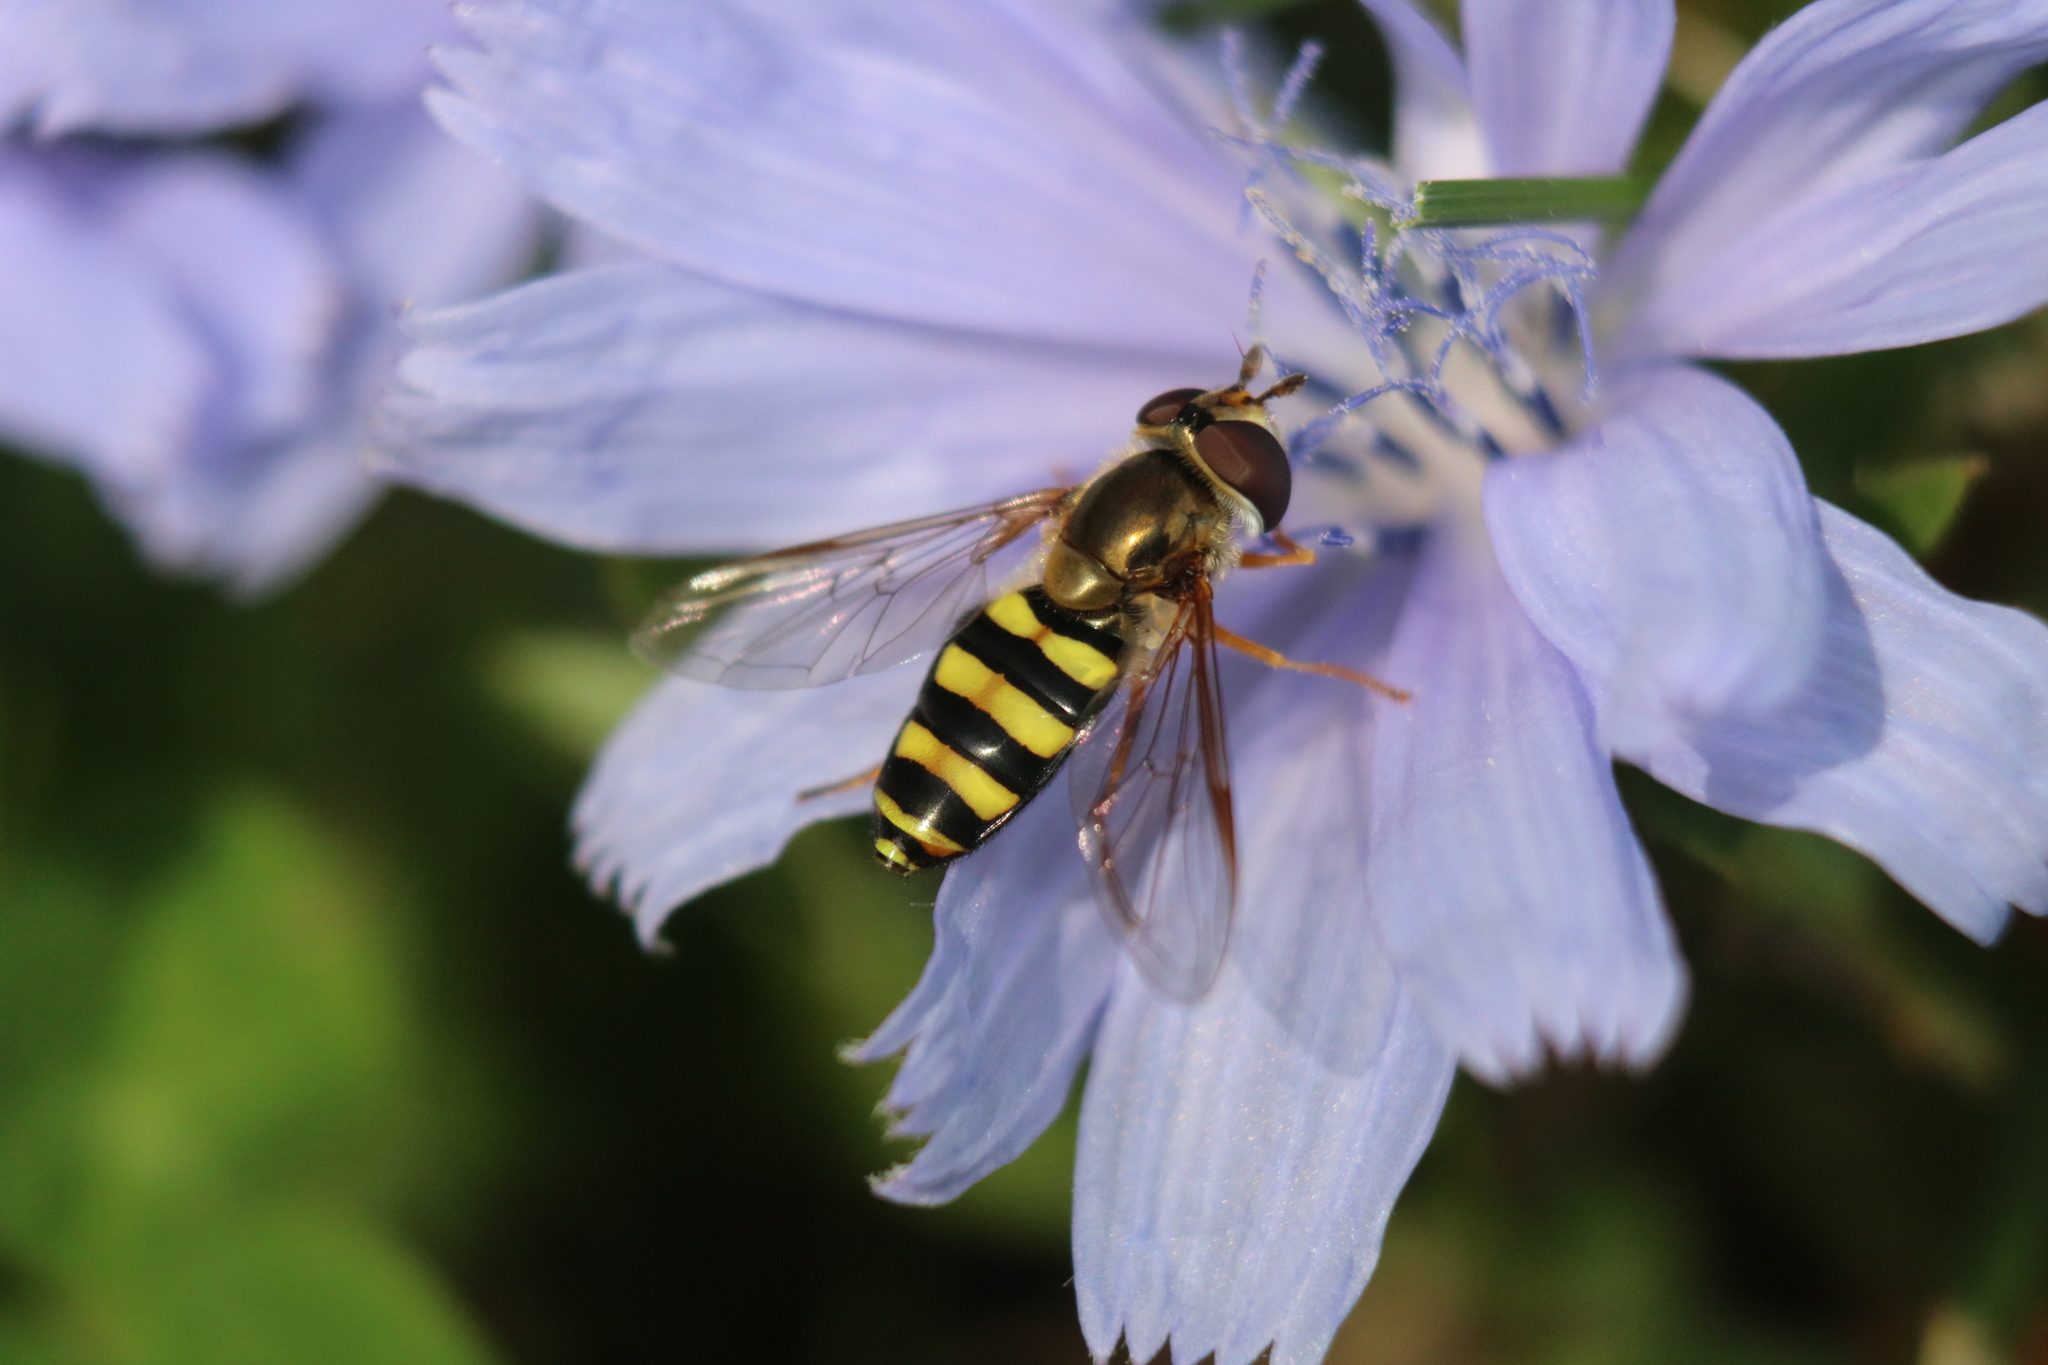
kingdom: Animalia
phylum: Arthropoda
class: Insecta
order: Diptera
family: Syrphidae
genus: Eupeodes
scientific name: Eupeodes
